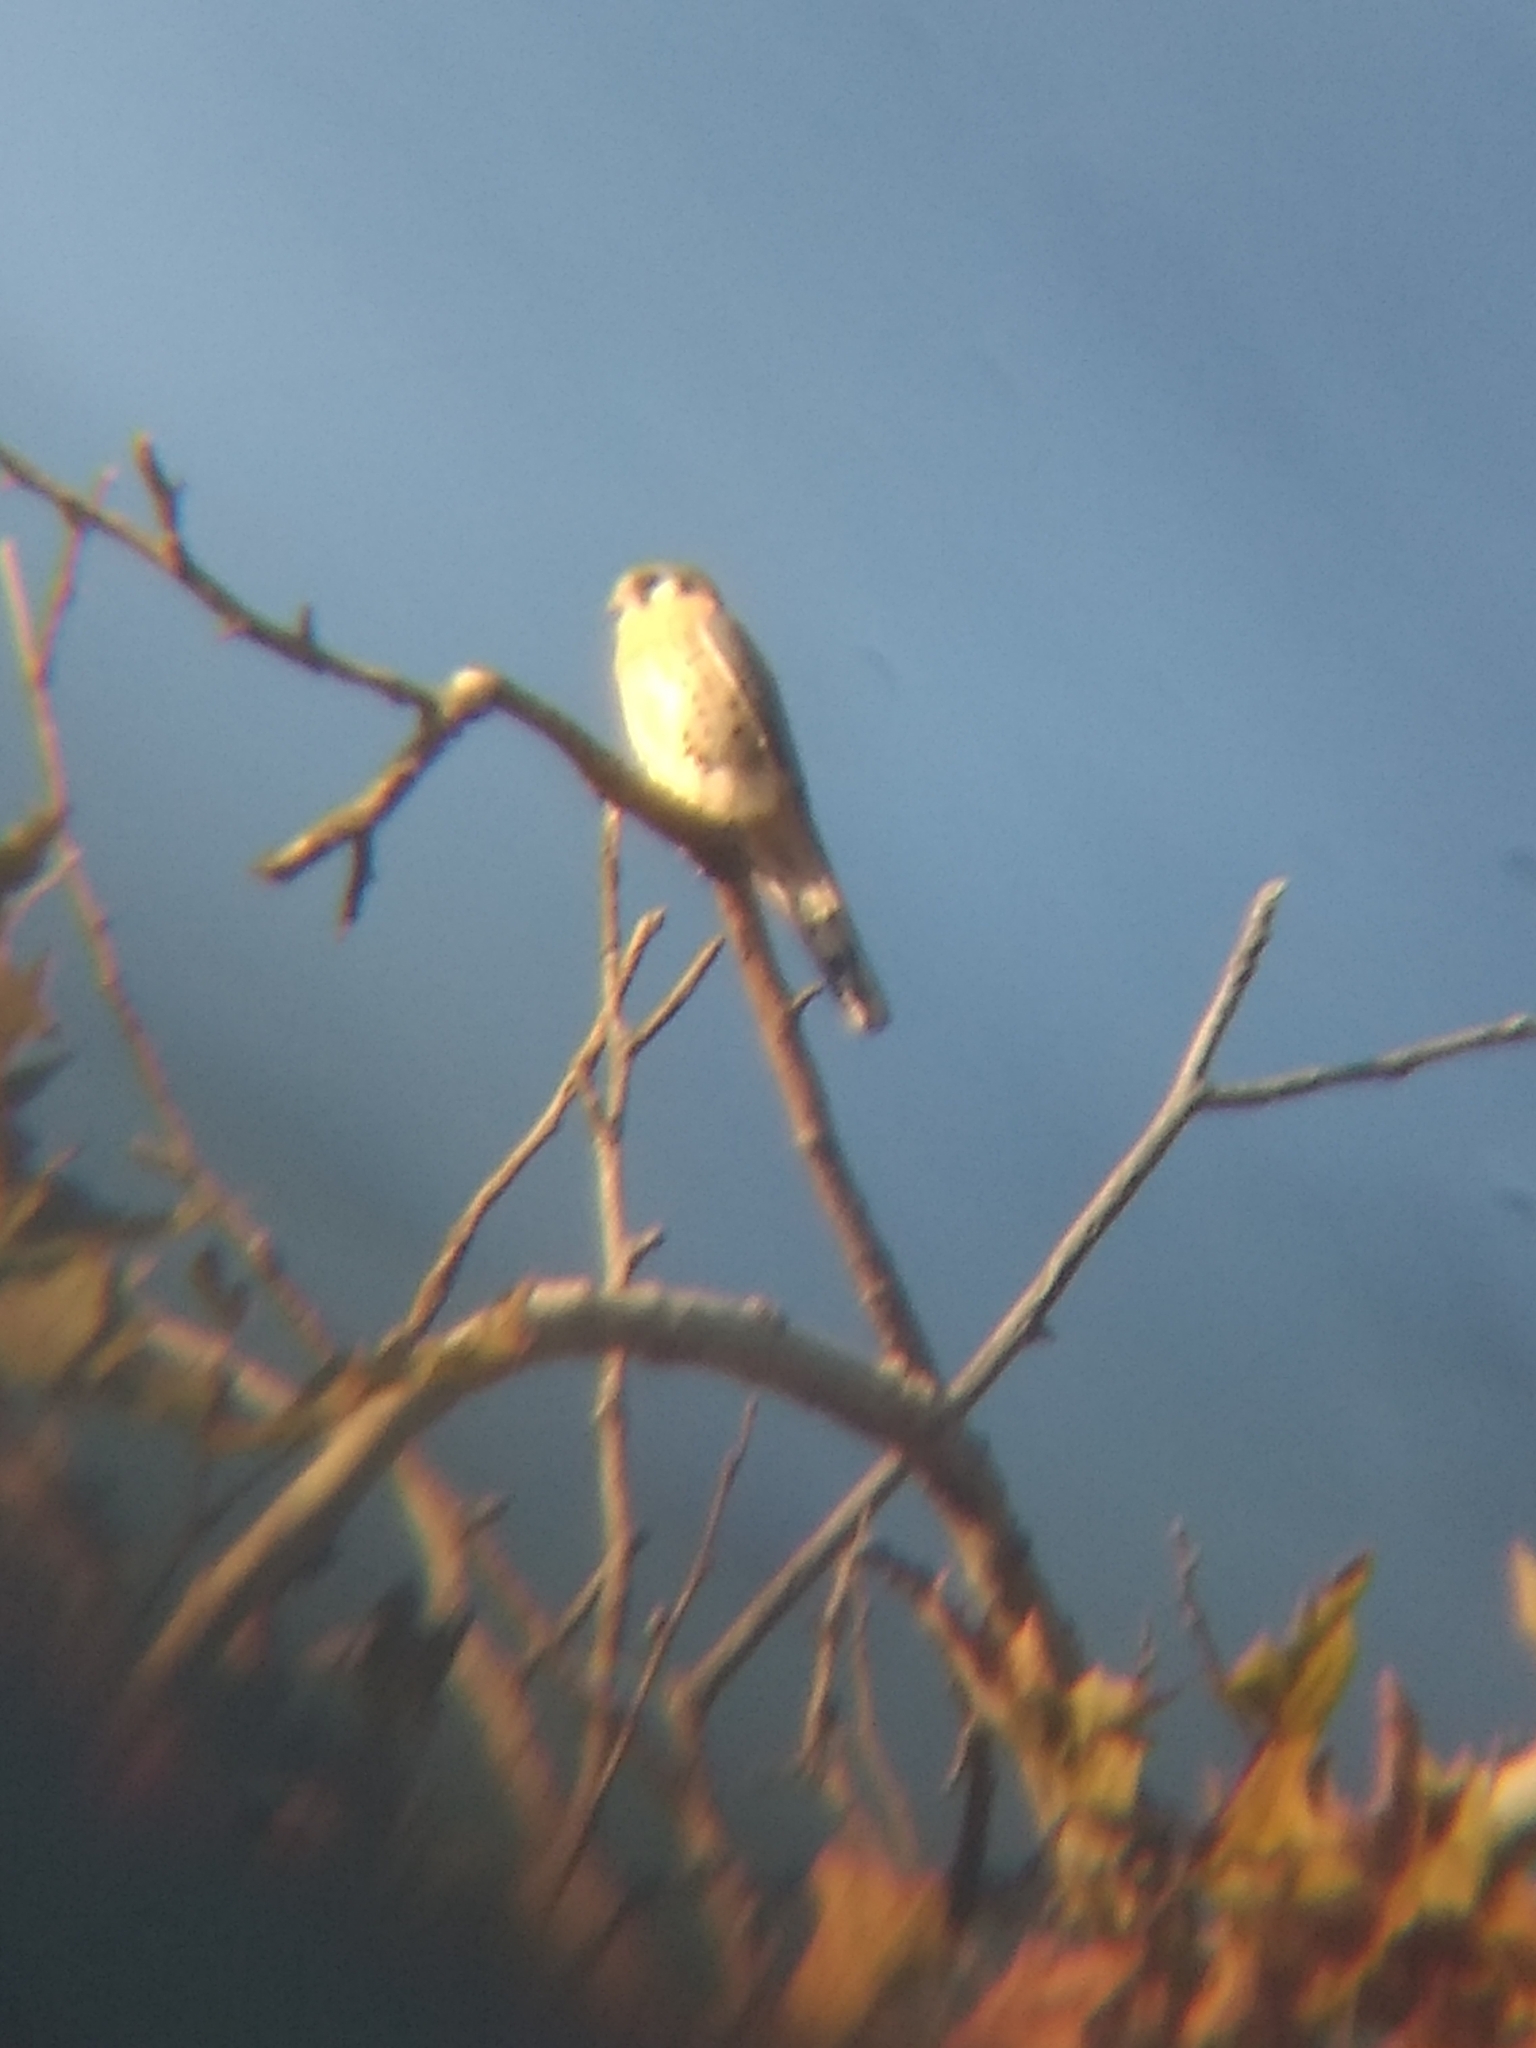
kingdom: Animalia
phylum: Chordata
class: Aves
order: Falconiformes
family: Falconidae
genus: Falco
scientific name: Falco sparverius
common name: American kestrel
